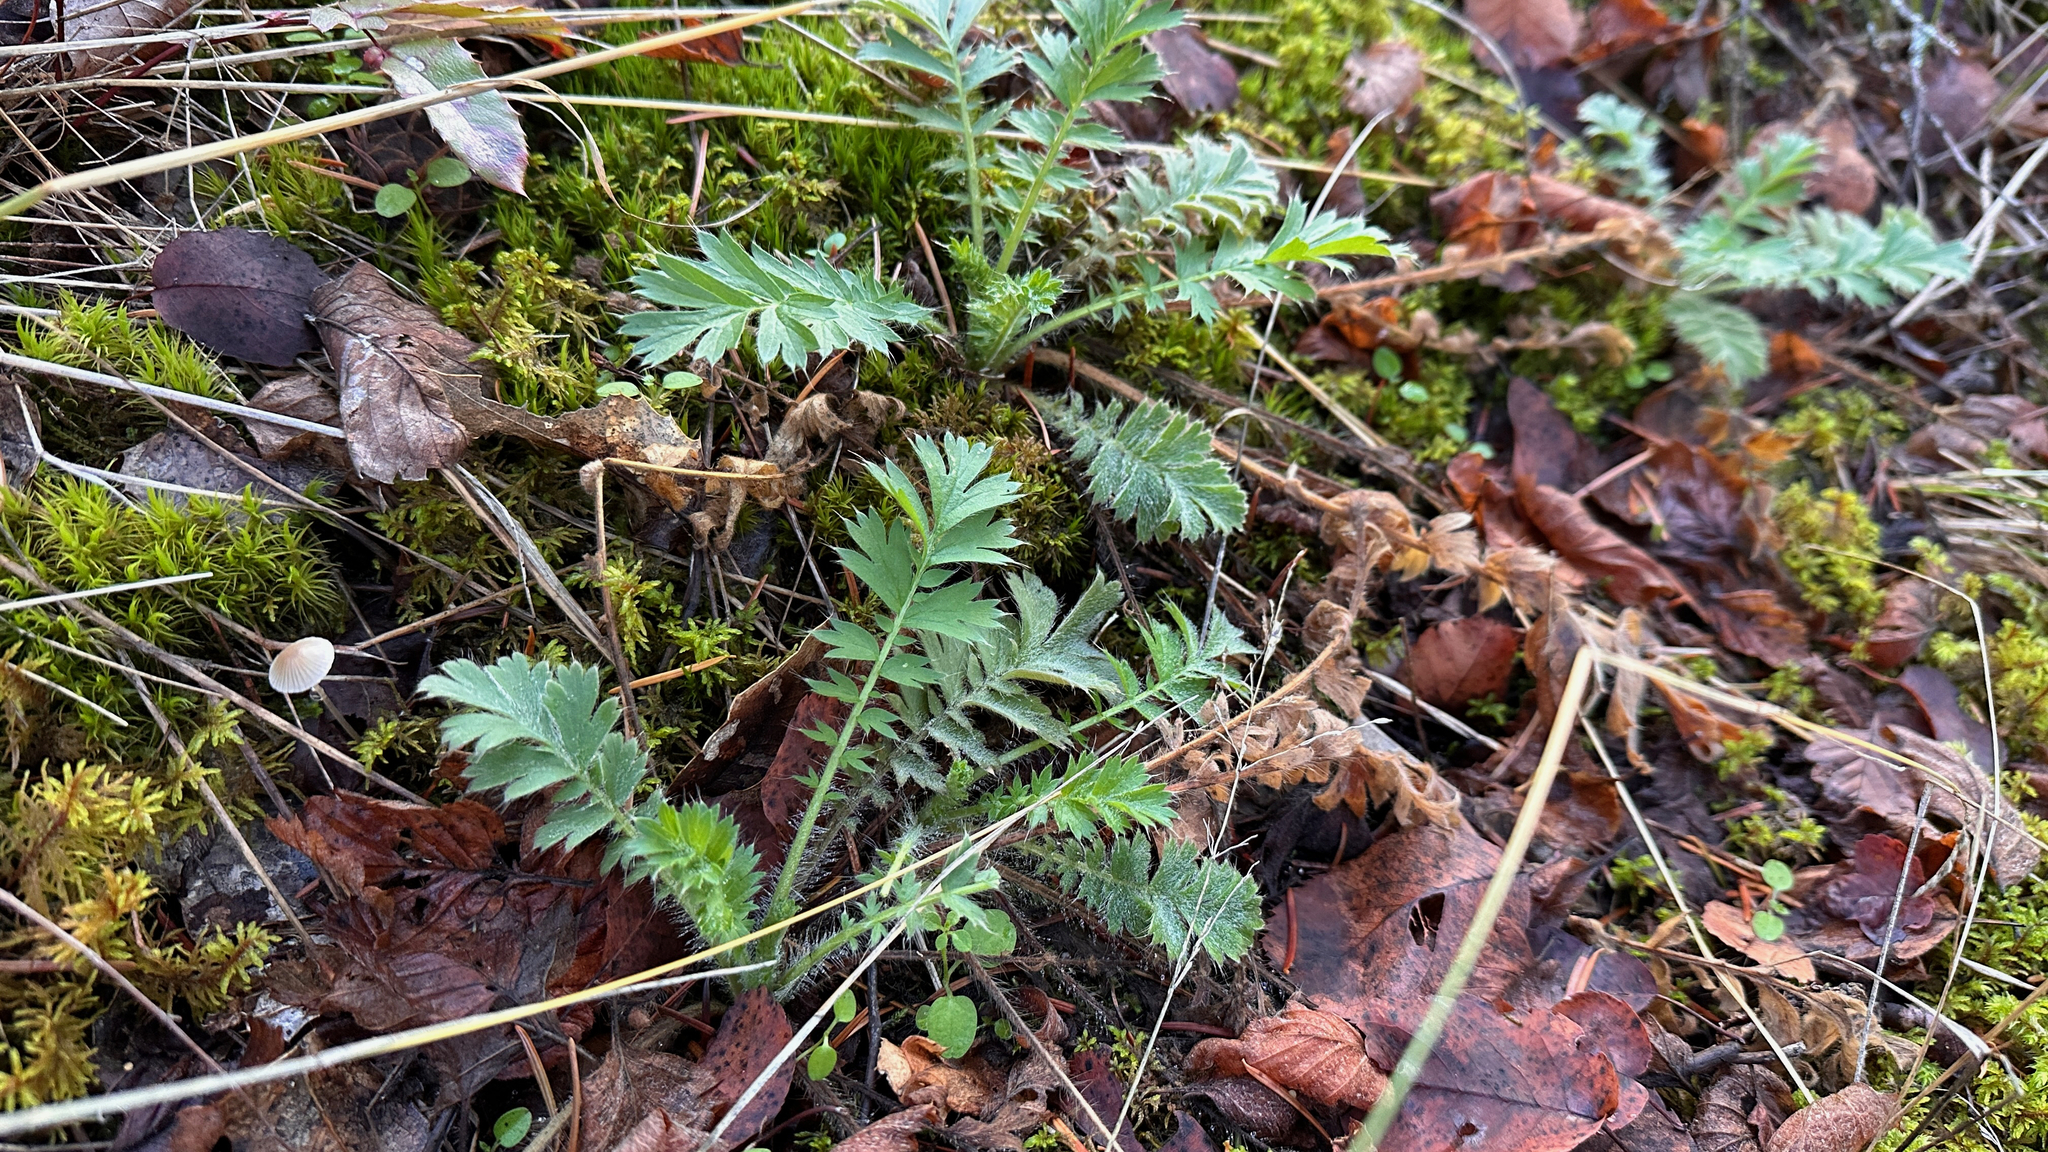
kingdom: Plantae
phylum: Tracheophyta
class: Magnoliopsida
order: Rosales
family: Rosaceae
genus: Geum
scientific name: Geum triflorum
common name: Old man's whiskers
